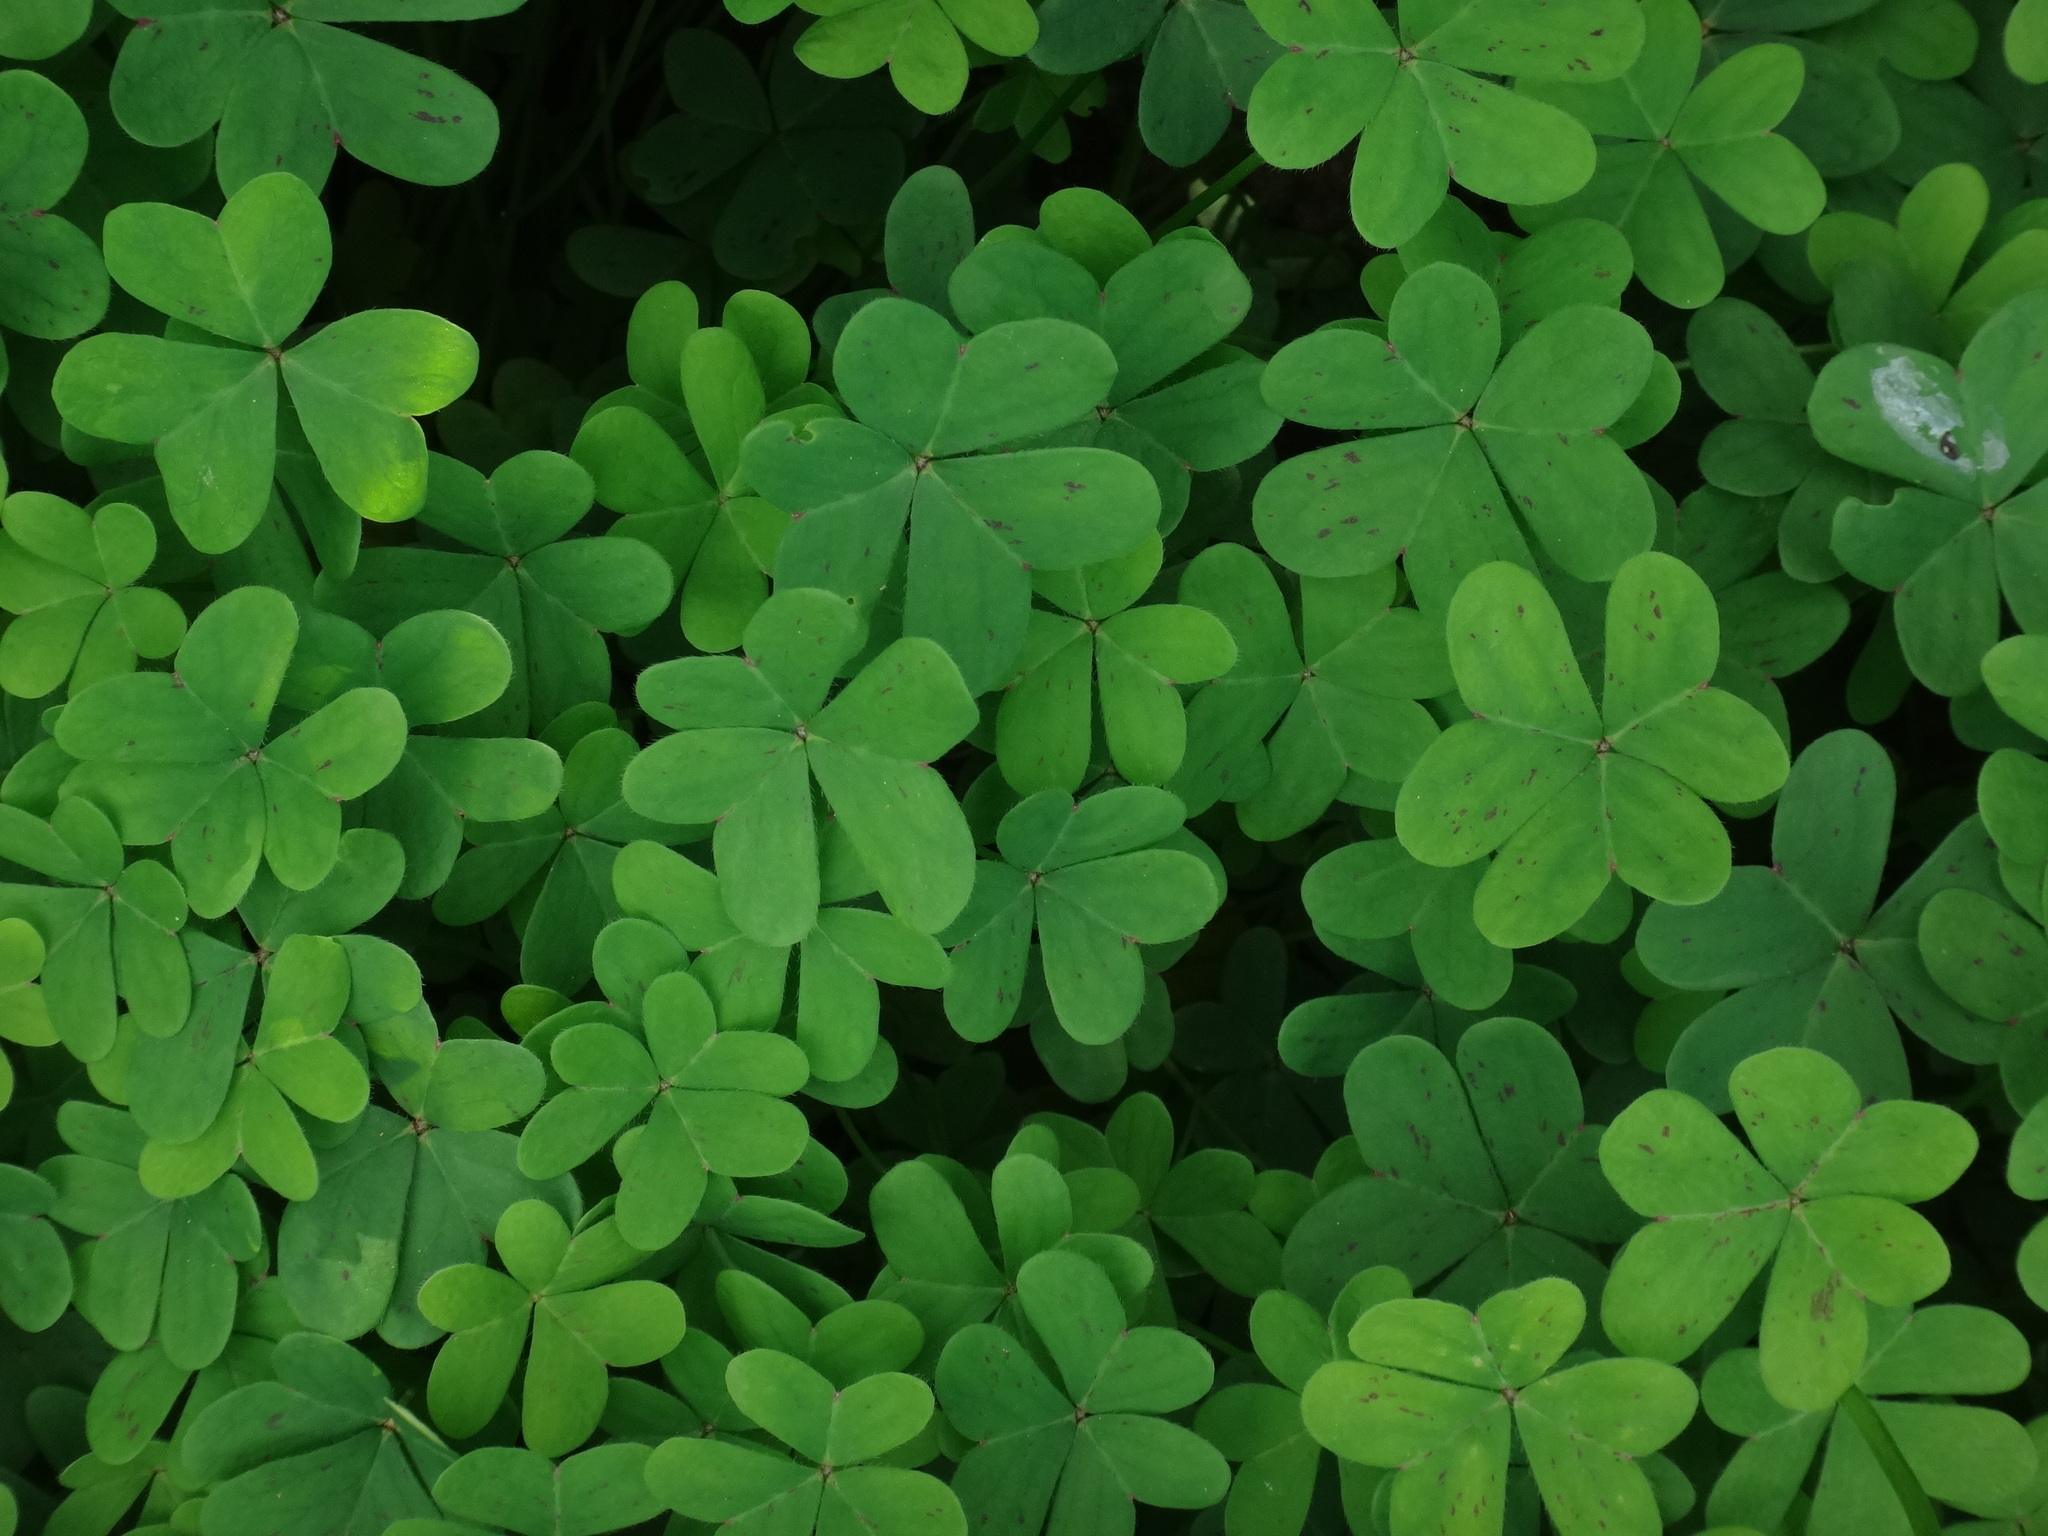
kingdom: Plantae
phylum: Tracheophyta
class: Magnoliopsida
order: Oxalidales
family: Oxalidaceae
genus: Oxalis
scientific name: Oxalis pes-caprae
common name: Bermuda-buttercup
